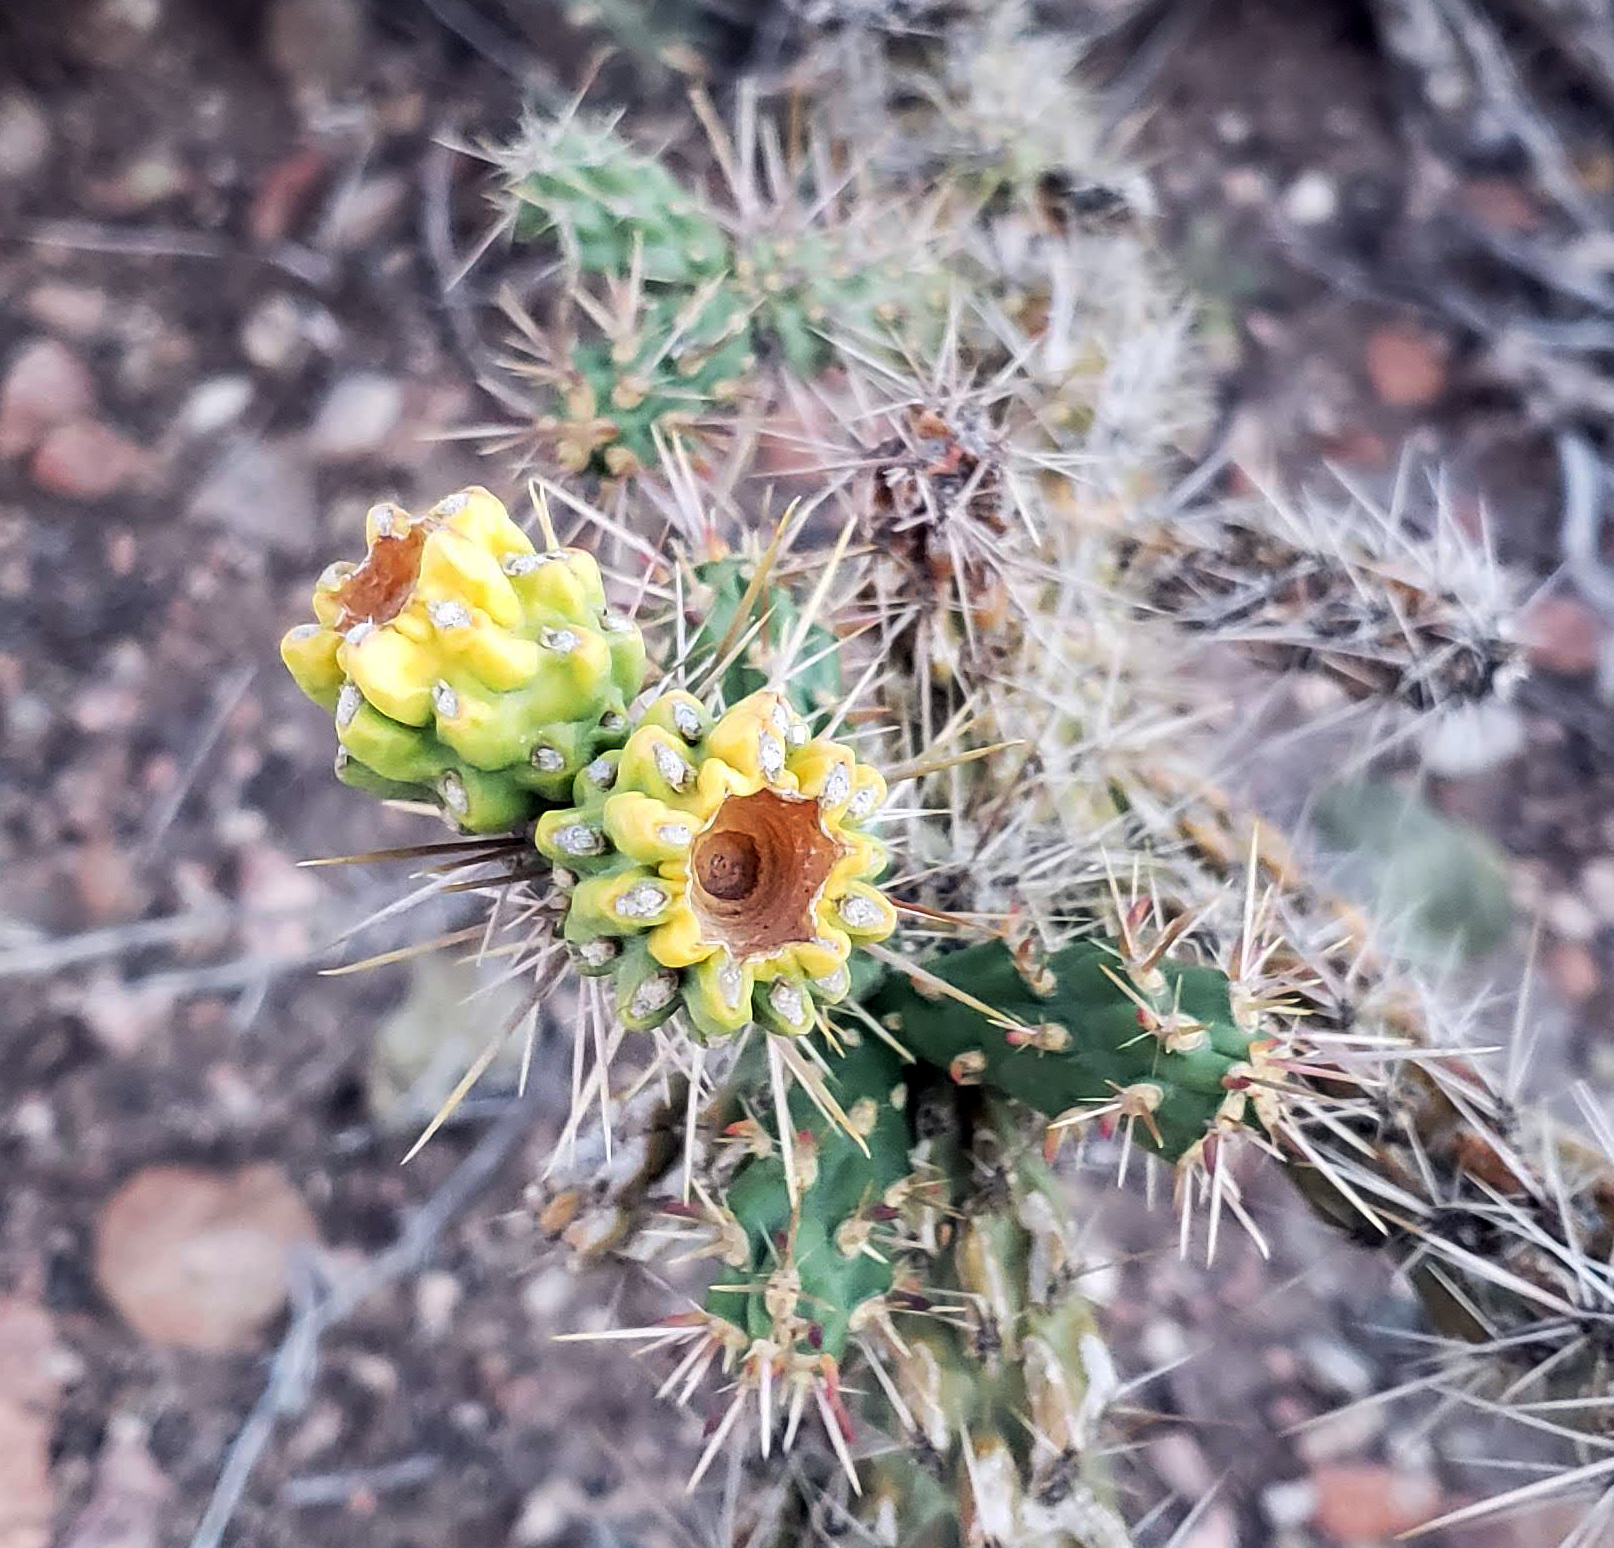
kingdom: Plantae
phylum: Tracheophyta
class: Magnoliopsida
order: Caryophyllales
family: Cactaceae
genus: Cylindropuntia
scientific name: Cylindropuntia imbricata
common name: Candelabrum cactus
